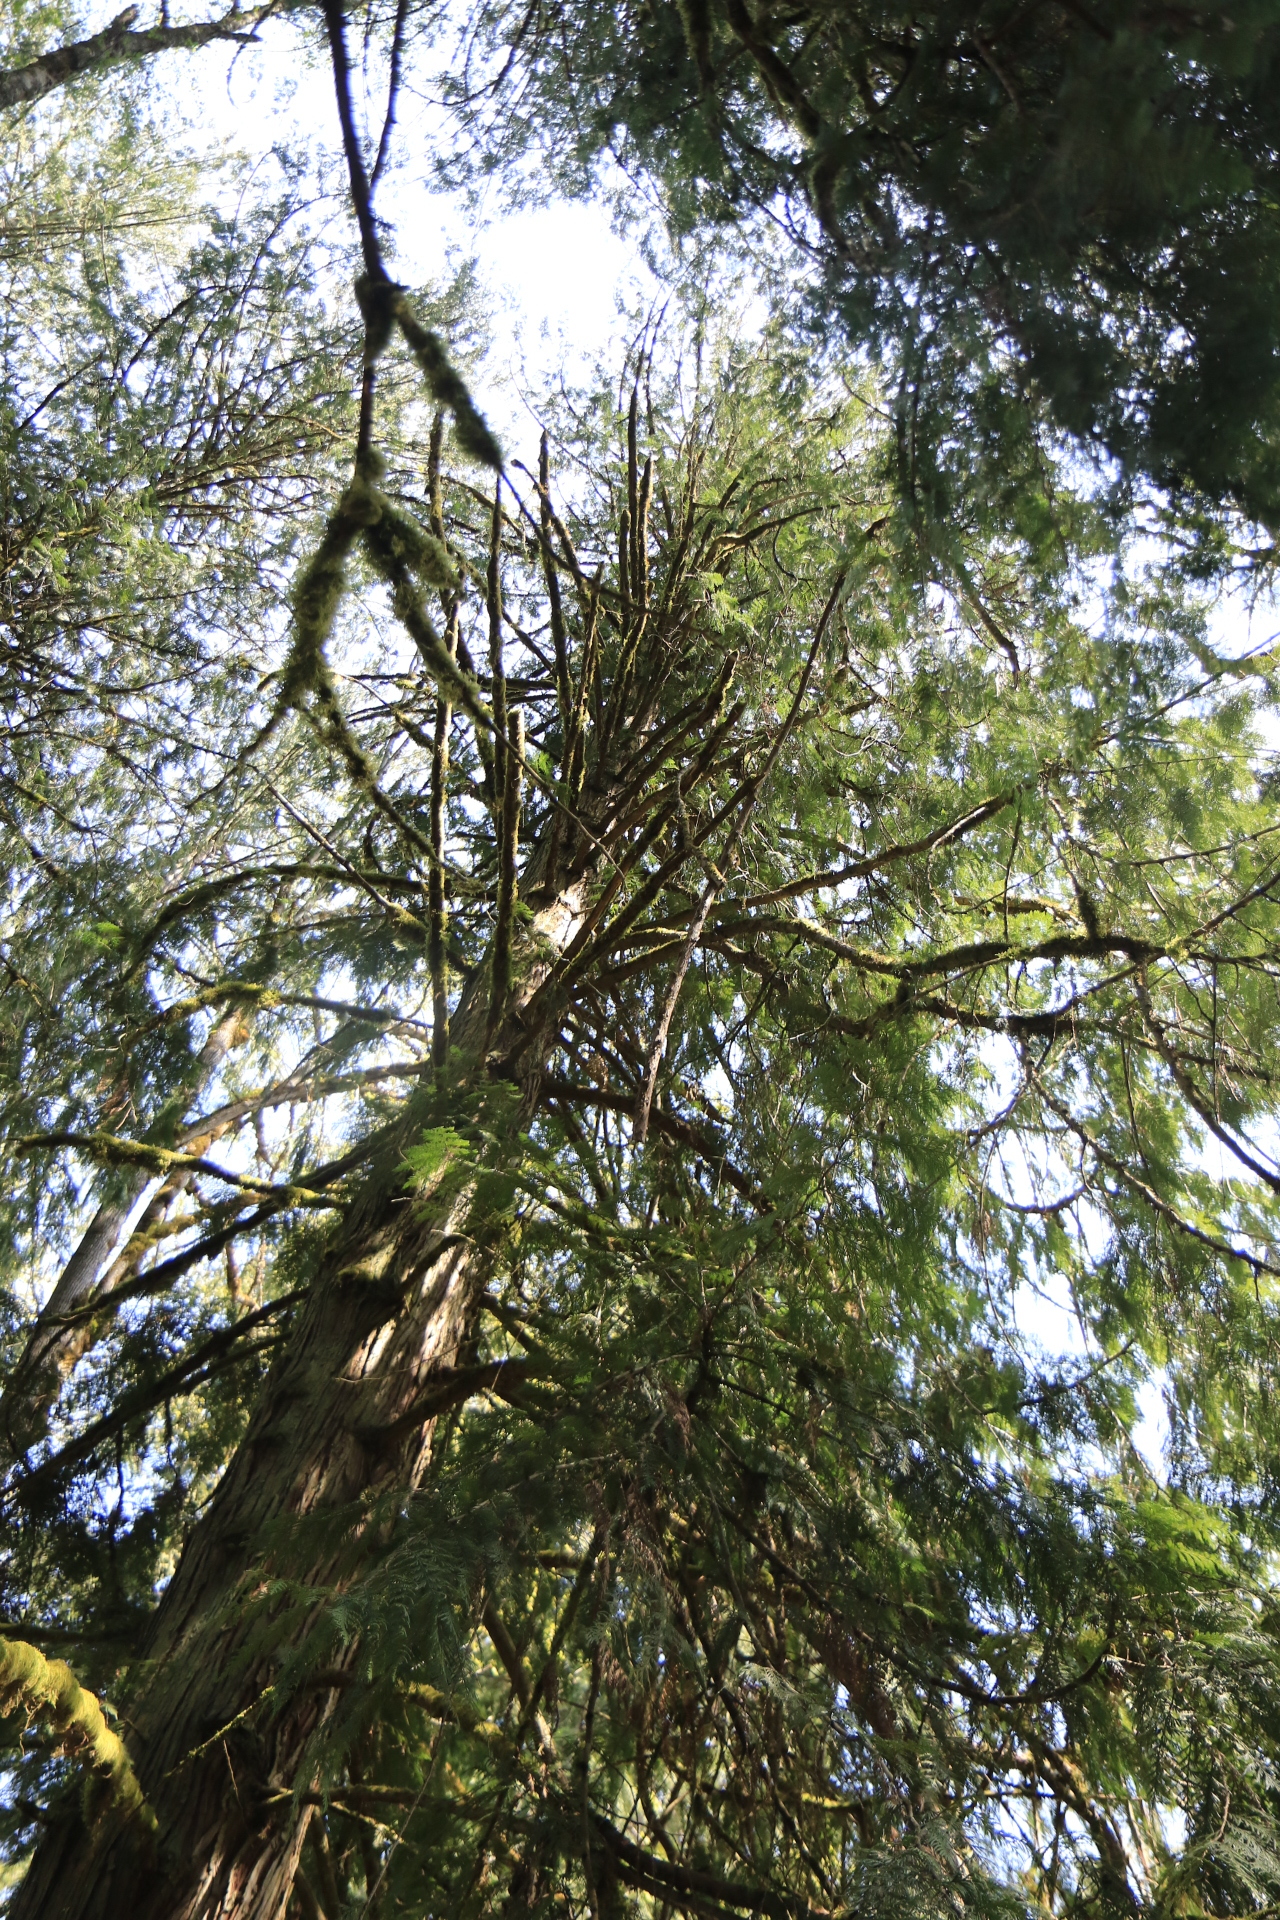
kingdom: Plantae
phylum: Tracheophyta
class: Pinopsida
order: Pinales
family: Cupressaceae
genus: Thuja
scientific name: Thuja plicata
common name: Western red-cedar
